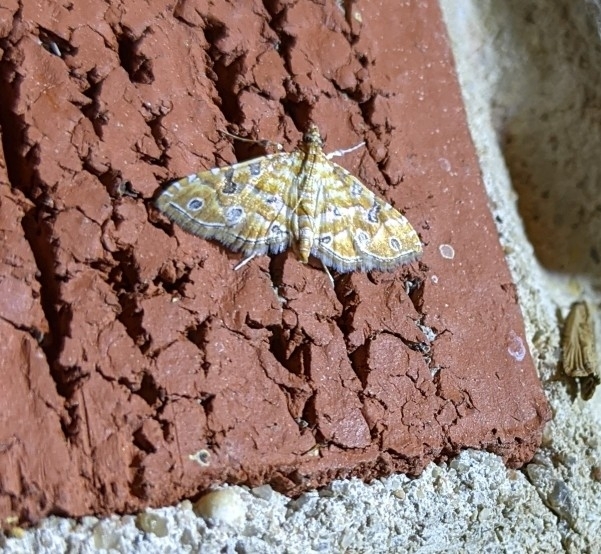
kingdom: Animalia
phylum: Arthropoda
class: Insecta
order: Lepidoptera
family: Crambidae
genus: Ommatospila
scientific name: Ommatospila narcaeusalis
